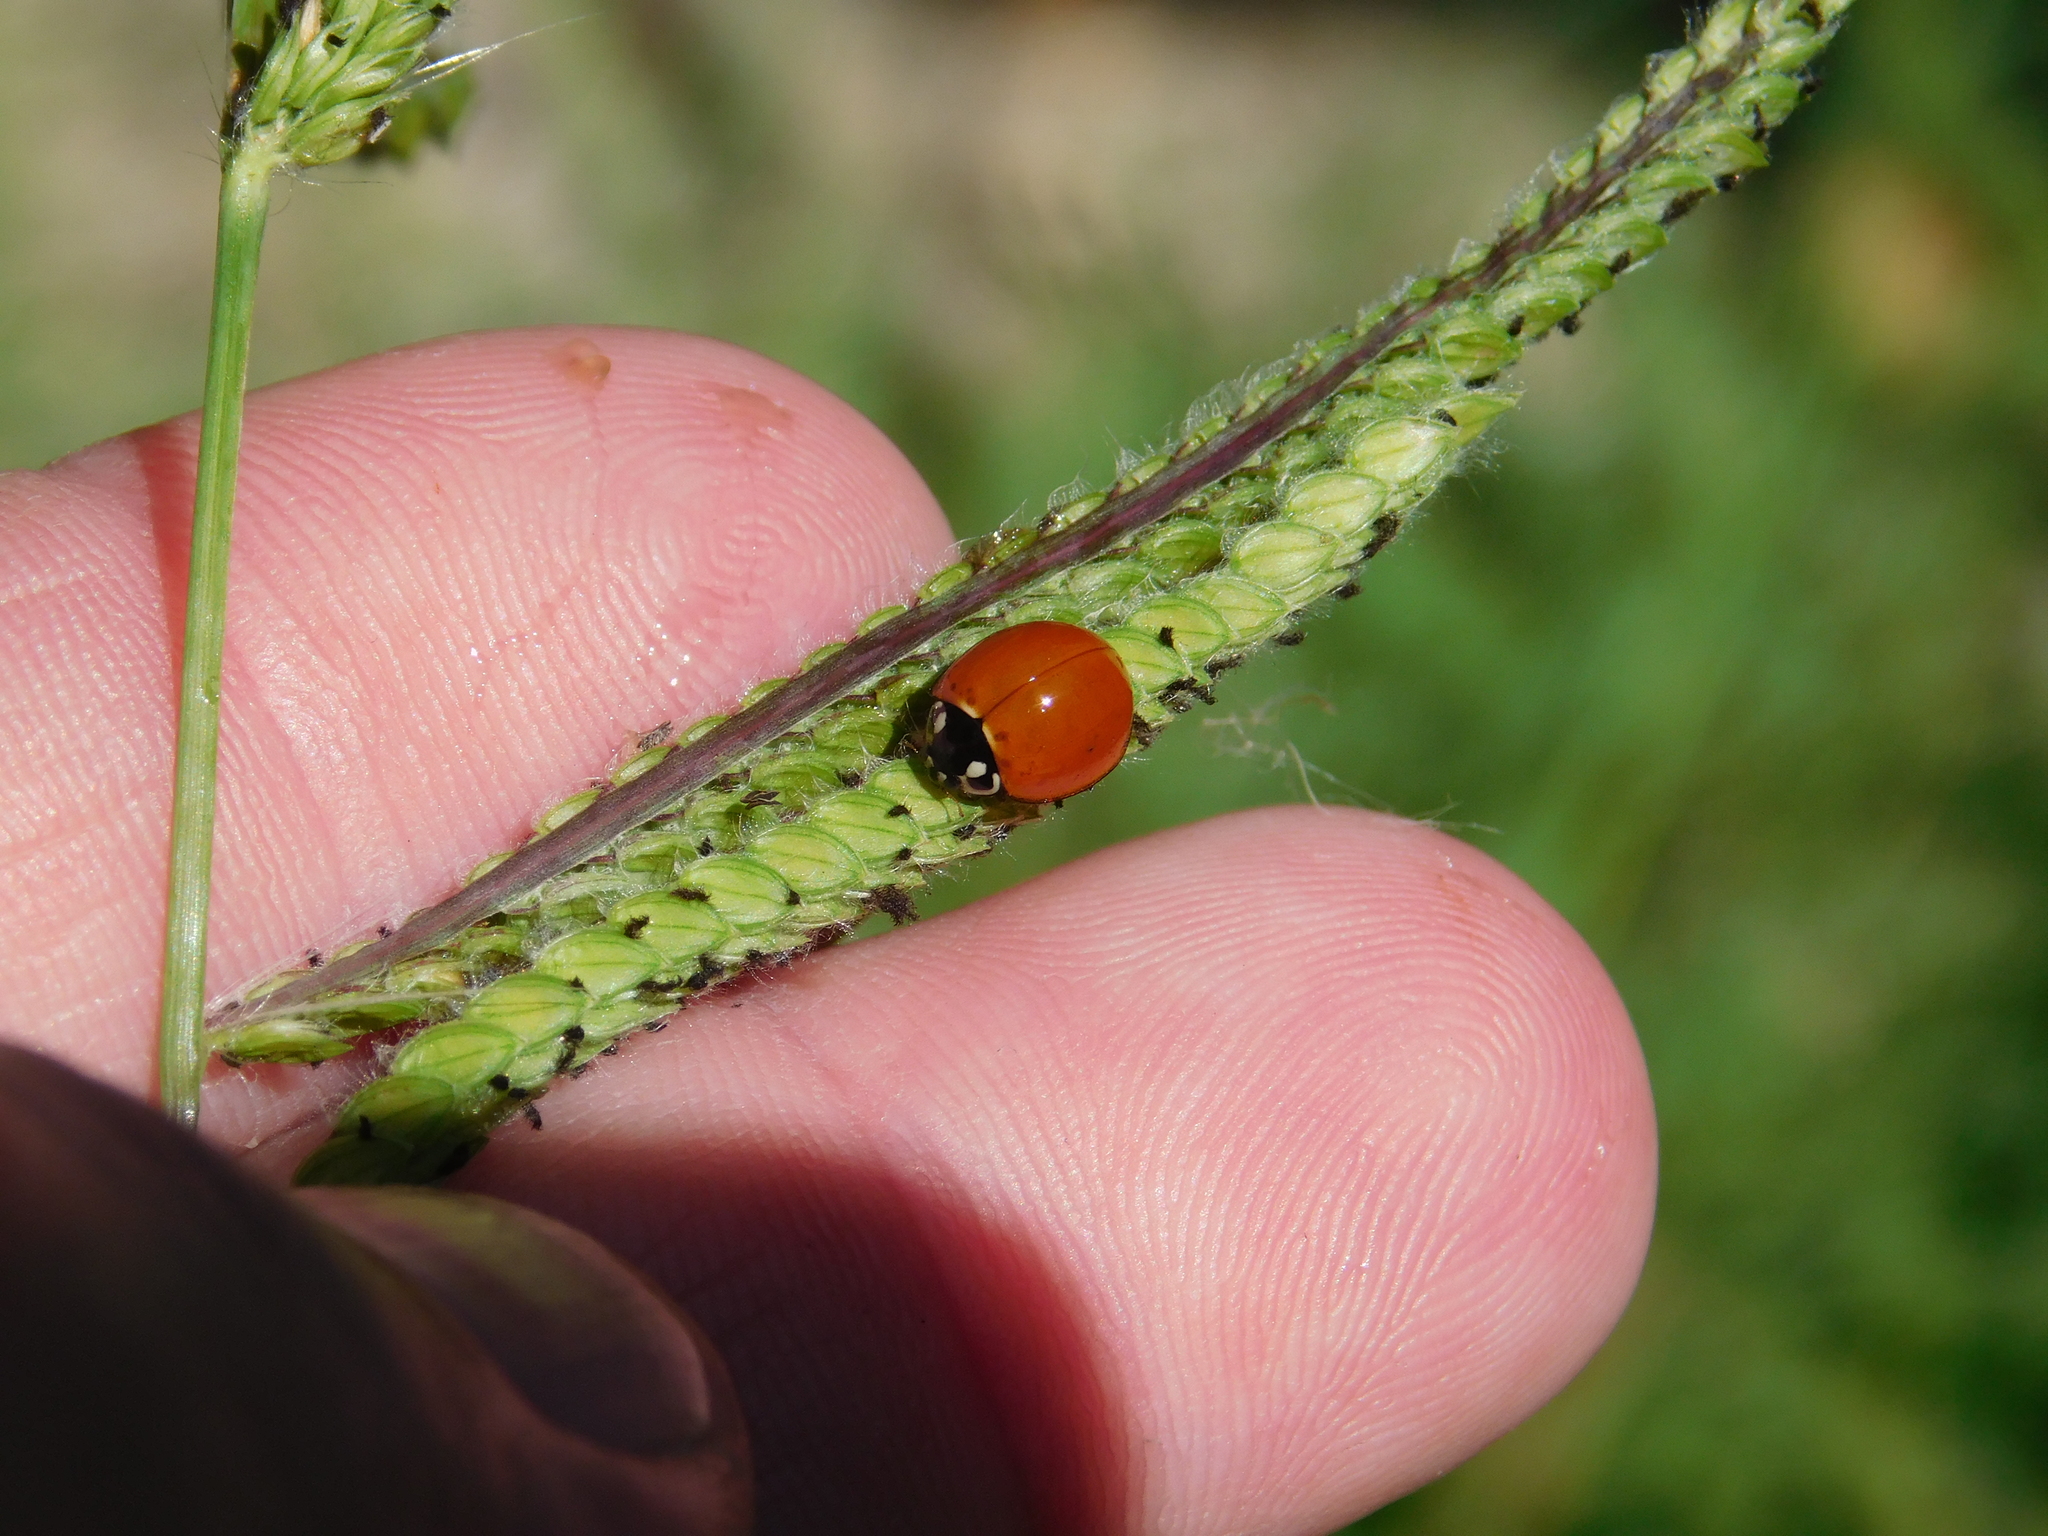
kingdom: Animalia
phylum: Arthropoda
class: Insecta
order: Coleoptera
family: Coccinellidae
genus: Cycloneda
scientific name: Cycloneda sanguinea
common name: Ladybird beetle
